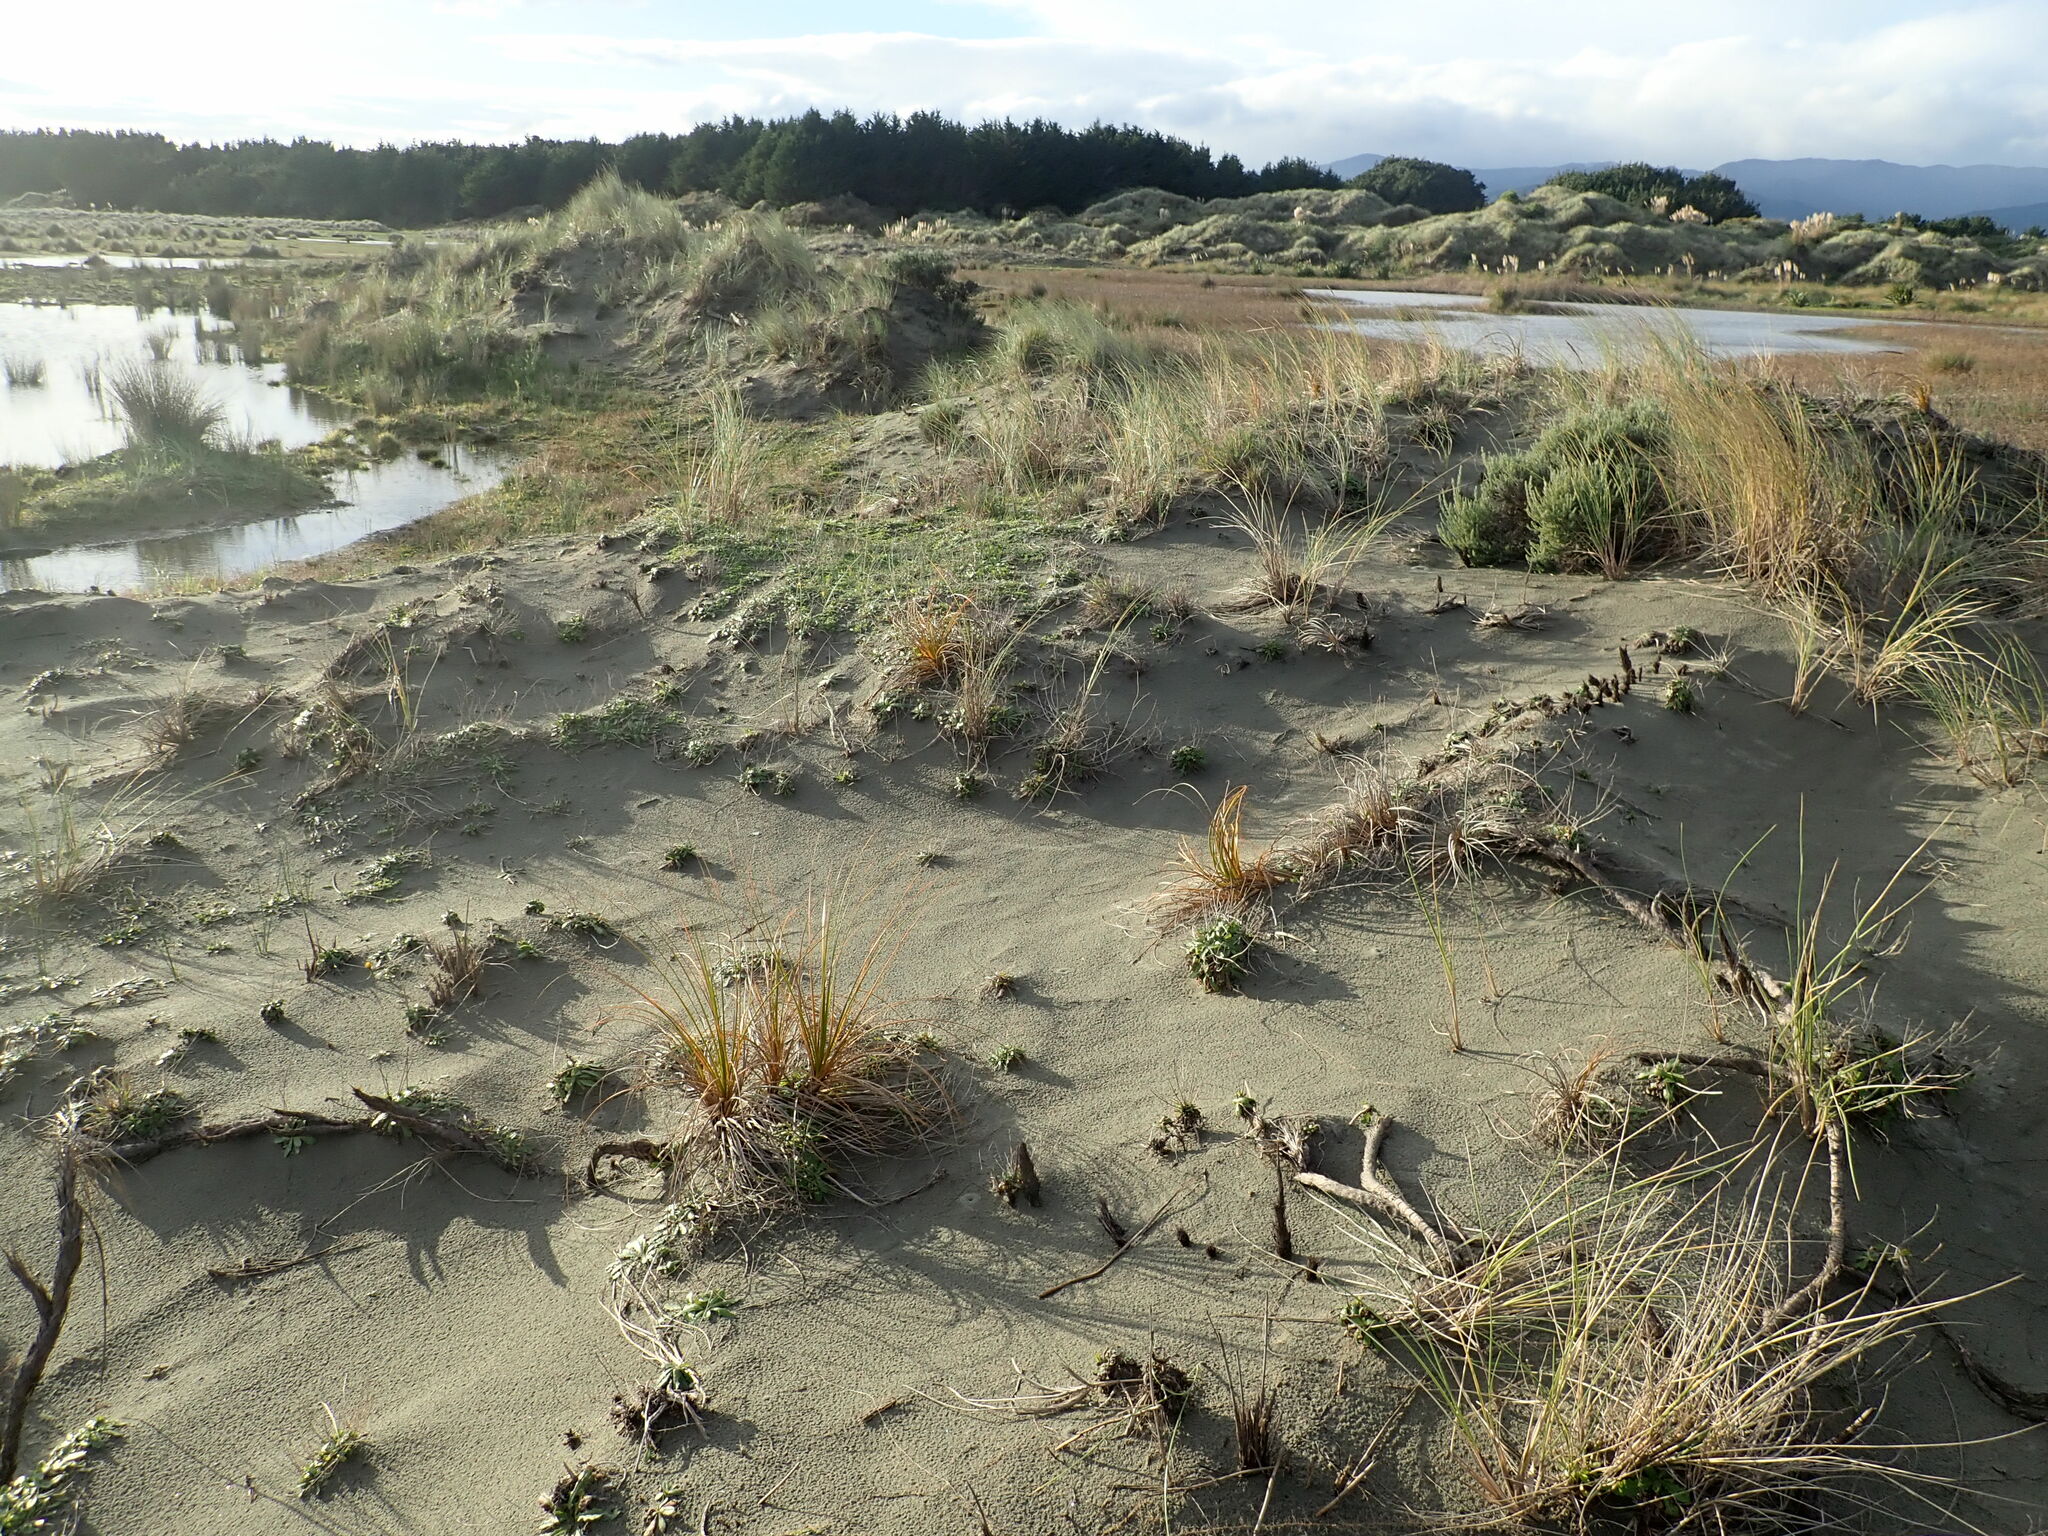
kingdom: Plantae
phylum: Tracheophyta
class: Liliopsida
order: Poales
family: Cyperaceae
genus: Ficinia
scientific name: Ficinia spiralis
